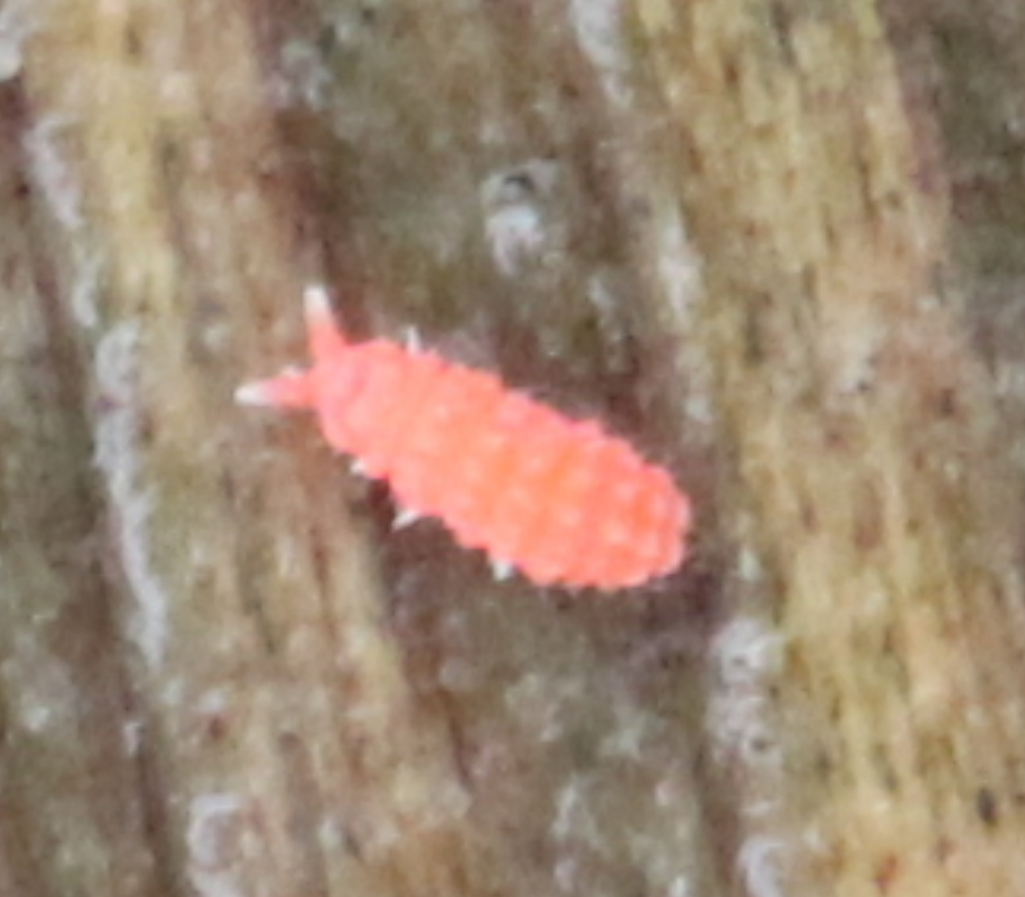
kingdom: Animalia
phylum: Arthropoda
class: Collembola
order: Poduromorpha
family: Neanuridae
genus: Bilobella
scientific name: Bilobella braunerae
